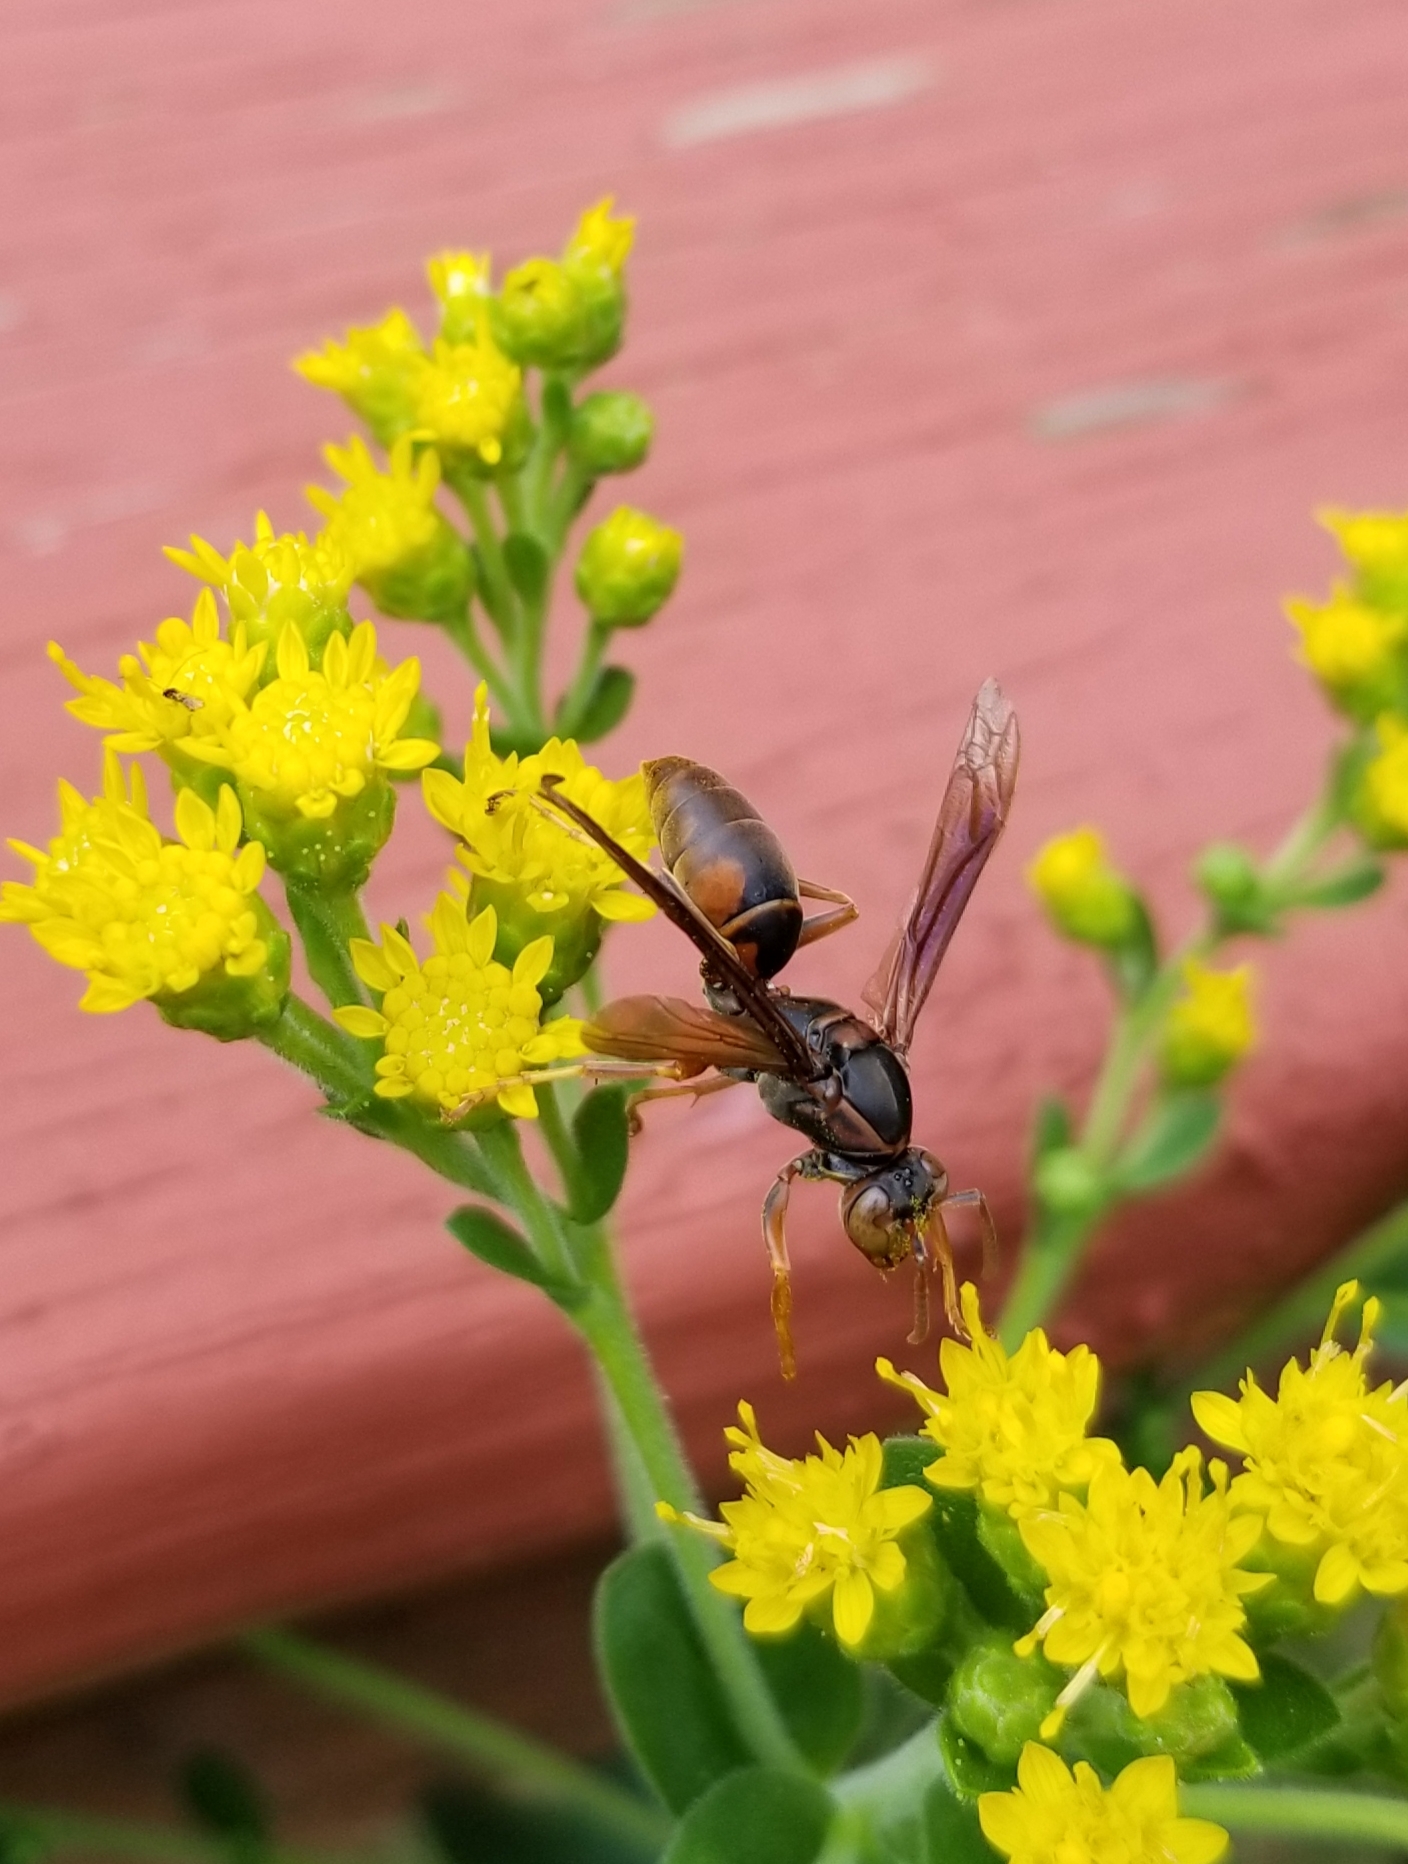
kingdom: Animalia
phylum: Arthropoda
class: Insecta
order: Hymenoptera
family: Eumenidae
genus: Polistes
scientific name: Polistes fuscatus
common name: Dark paper wasp
